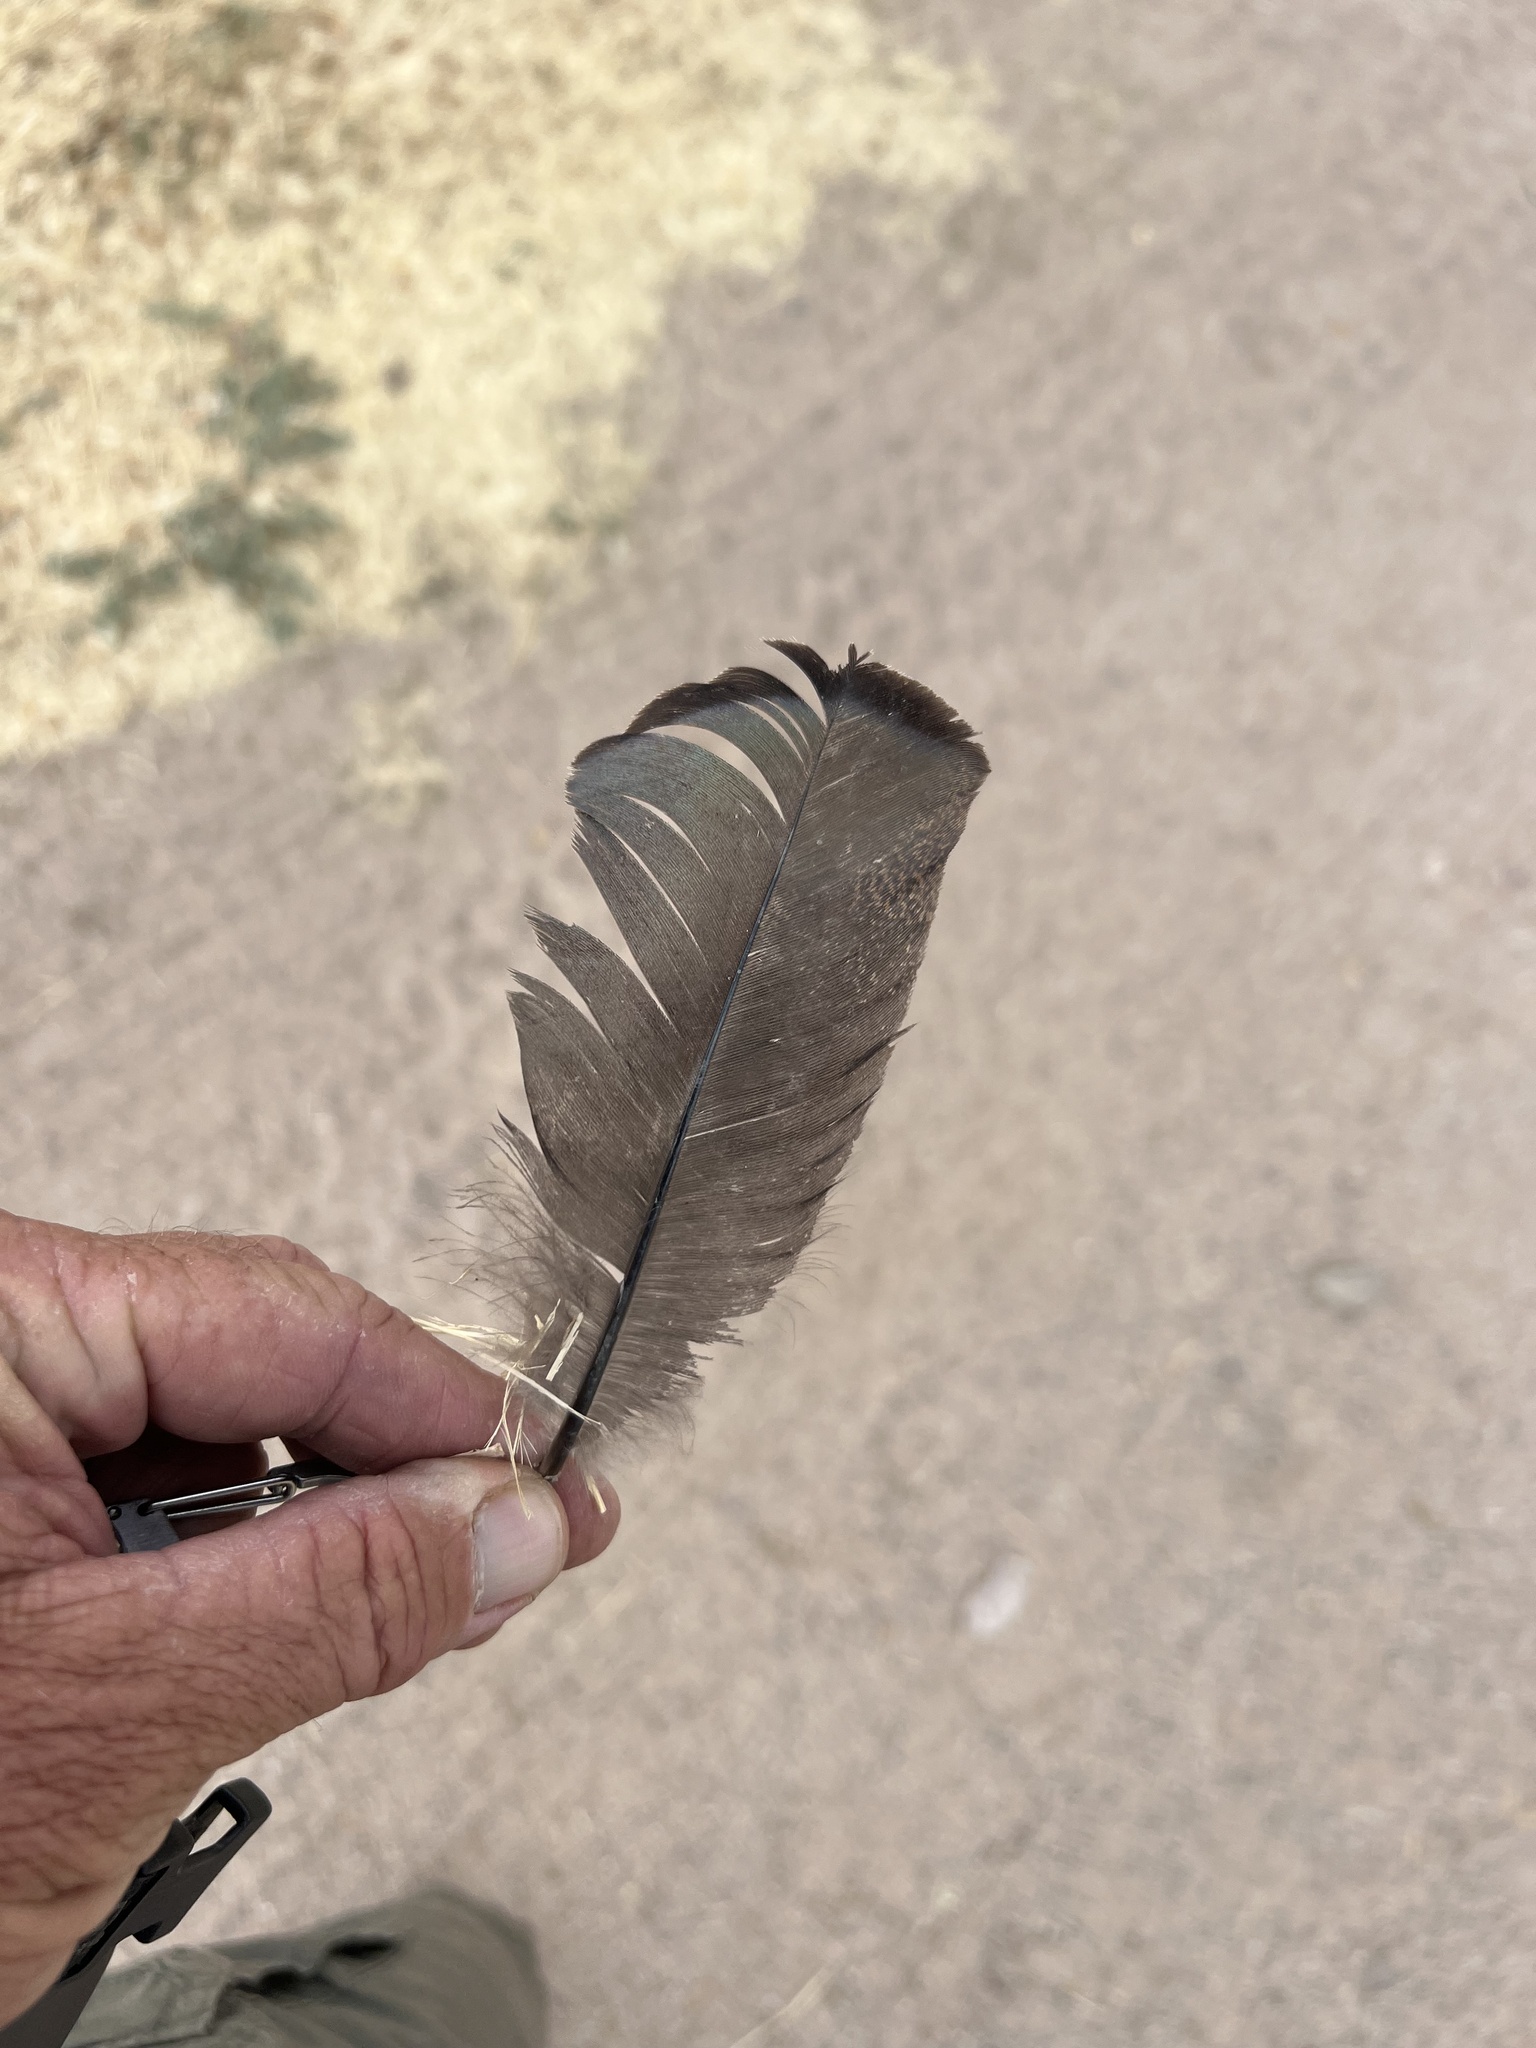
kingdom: Animalia
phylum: Chordata
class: Aves
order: Galliformes
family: Phasianidae
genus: Meleagris
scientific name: Meleagris gallopavo
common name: Wild turkey
